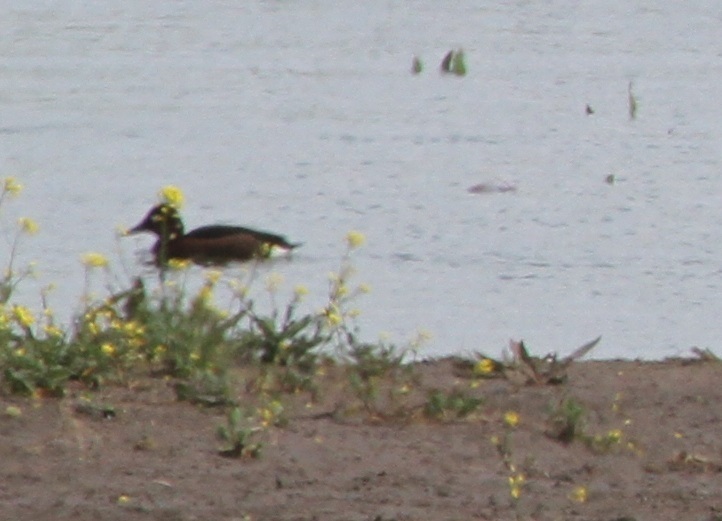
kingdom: Animalia
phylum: Chordata
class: Aves
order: Anseriformes
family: Anatidae
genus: Aythya
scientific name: Aythya nyroca
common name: Ferruginous duck
